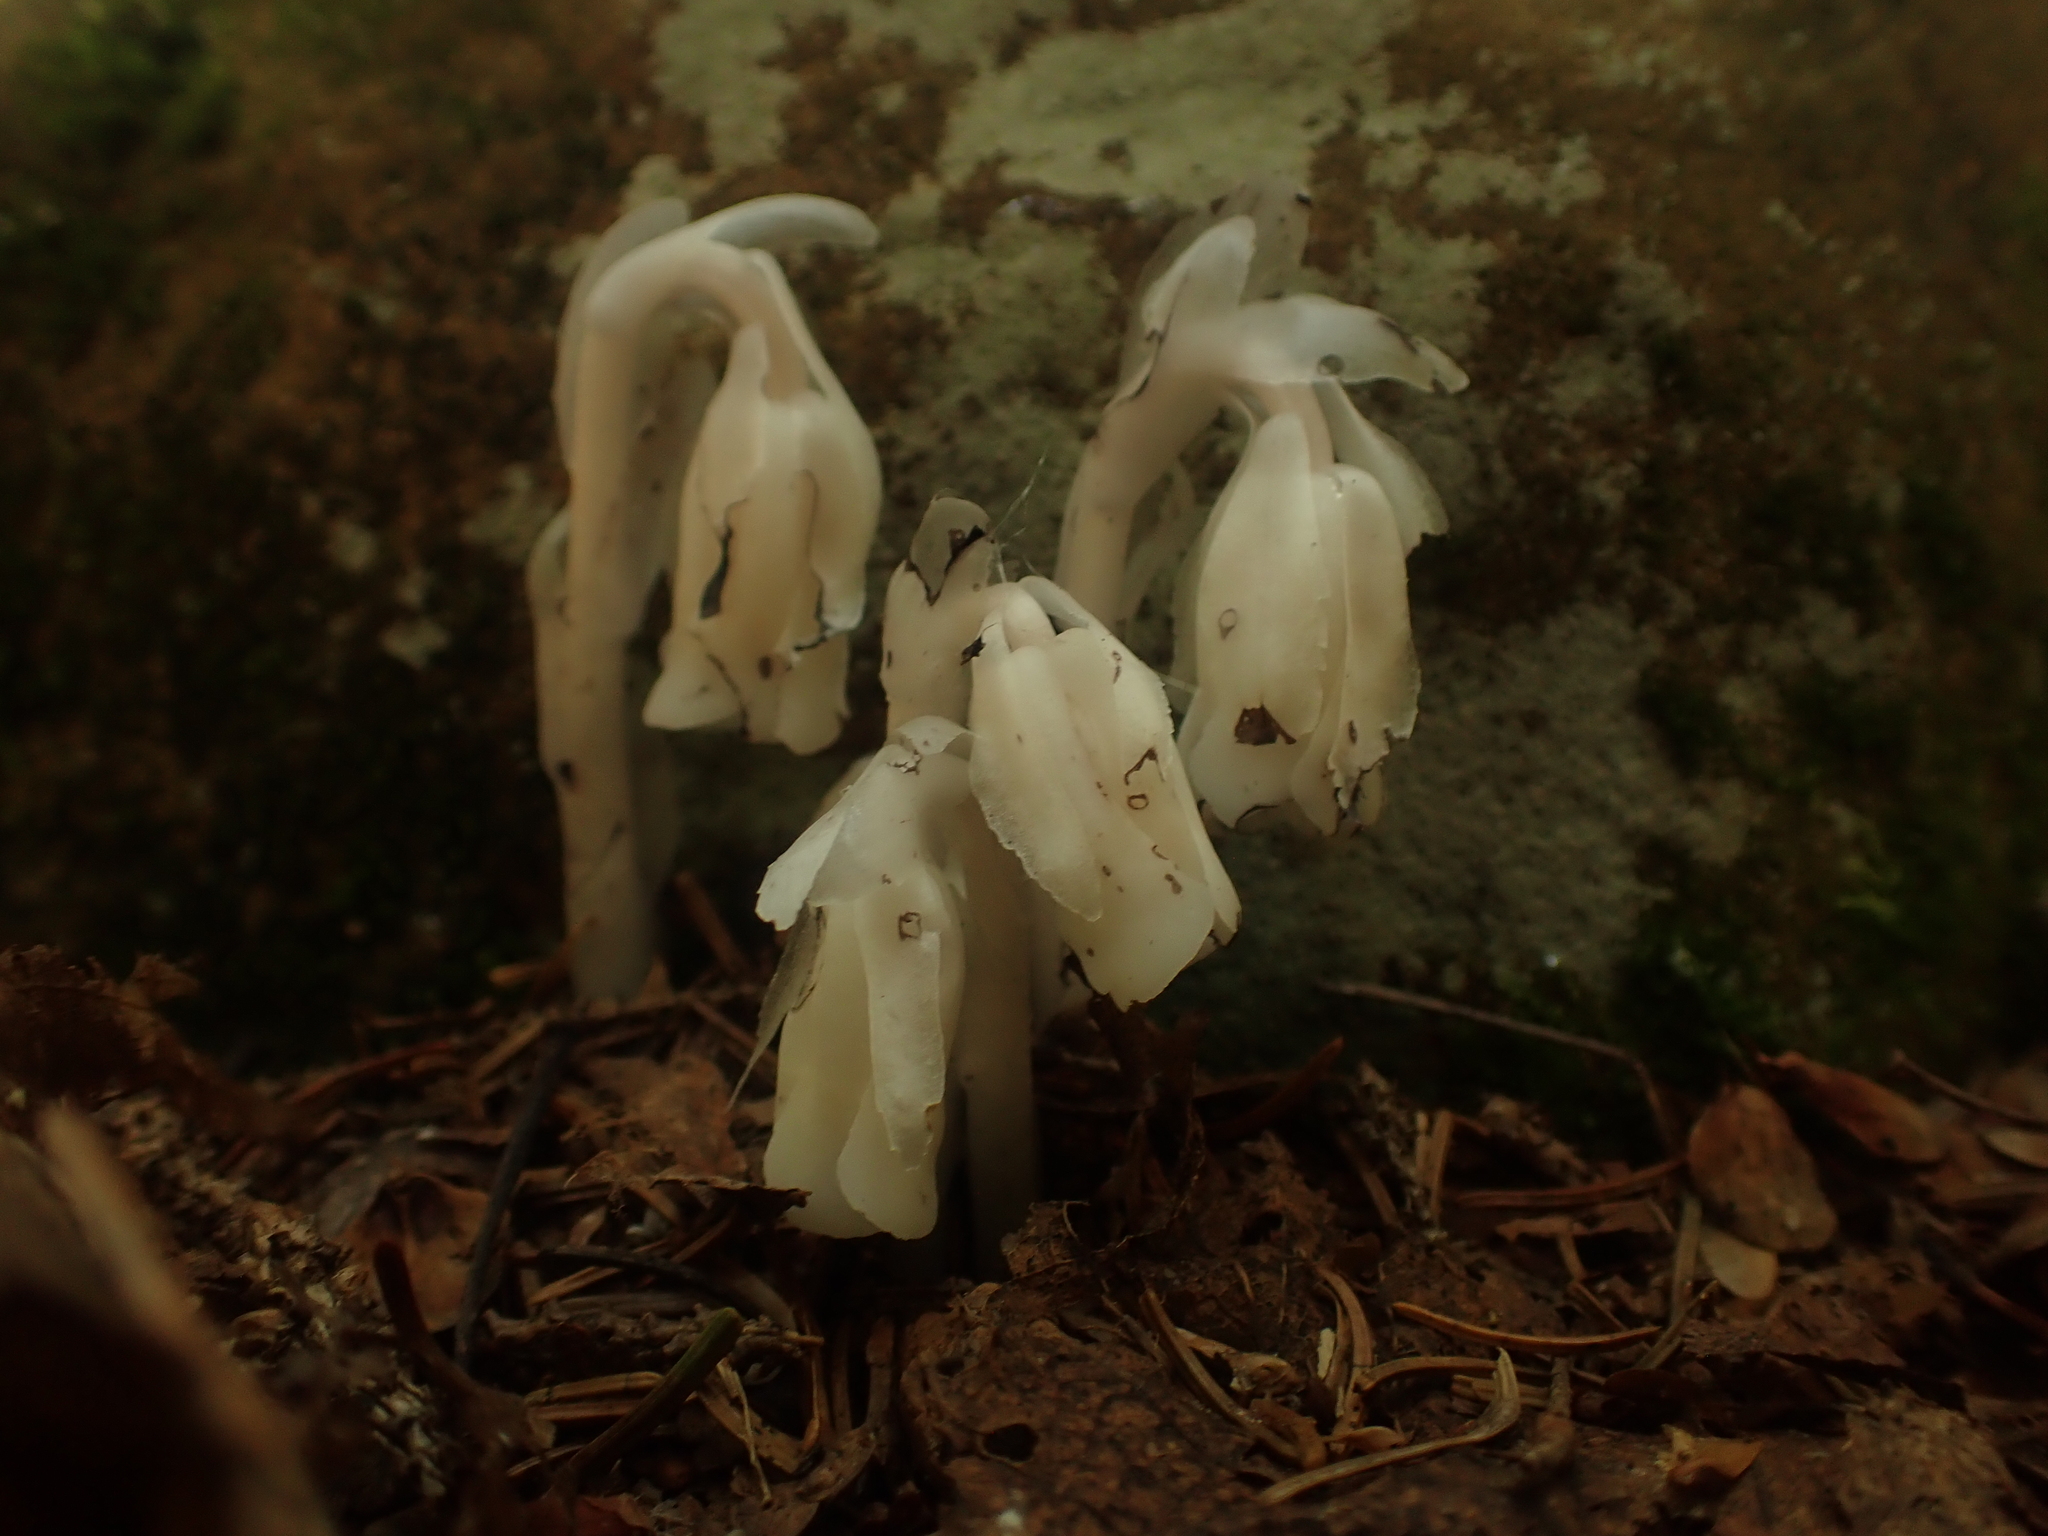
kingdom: Plantae
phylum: Tracheophyta
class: Magnoliopsida
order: Ericales
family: Ericaceae
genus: Monotropa
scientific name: Monotropa uniflora
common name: Convulsion root
